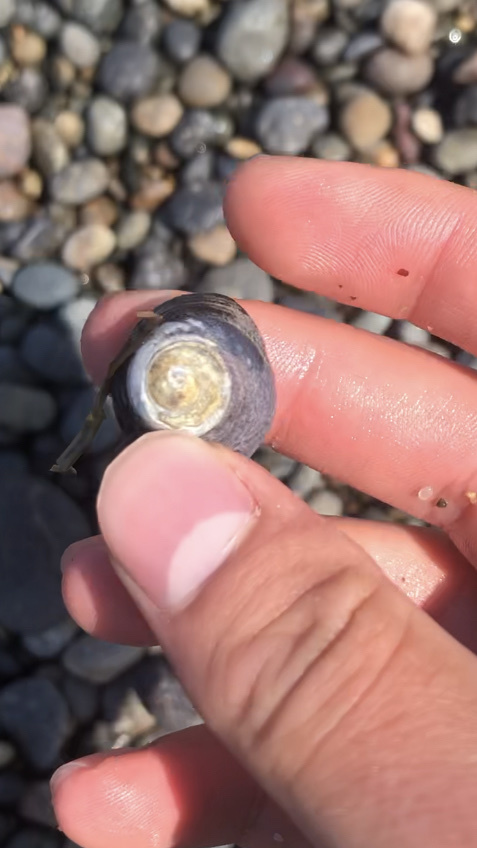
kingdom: Animalia
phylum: Mollusca
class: Gastropoda
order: Trochida
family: Tegulidae
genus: Tegula
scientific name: Tegula funebralis
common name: Black tegula
